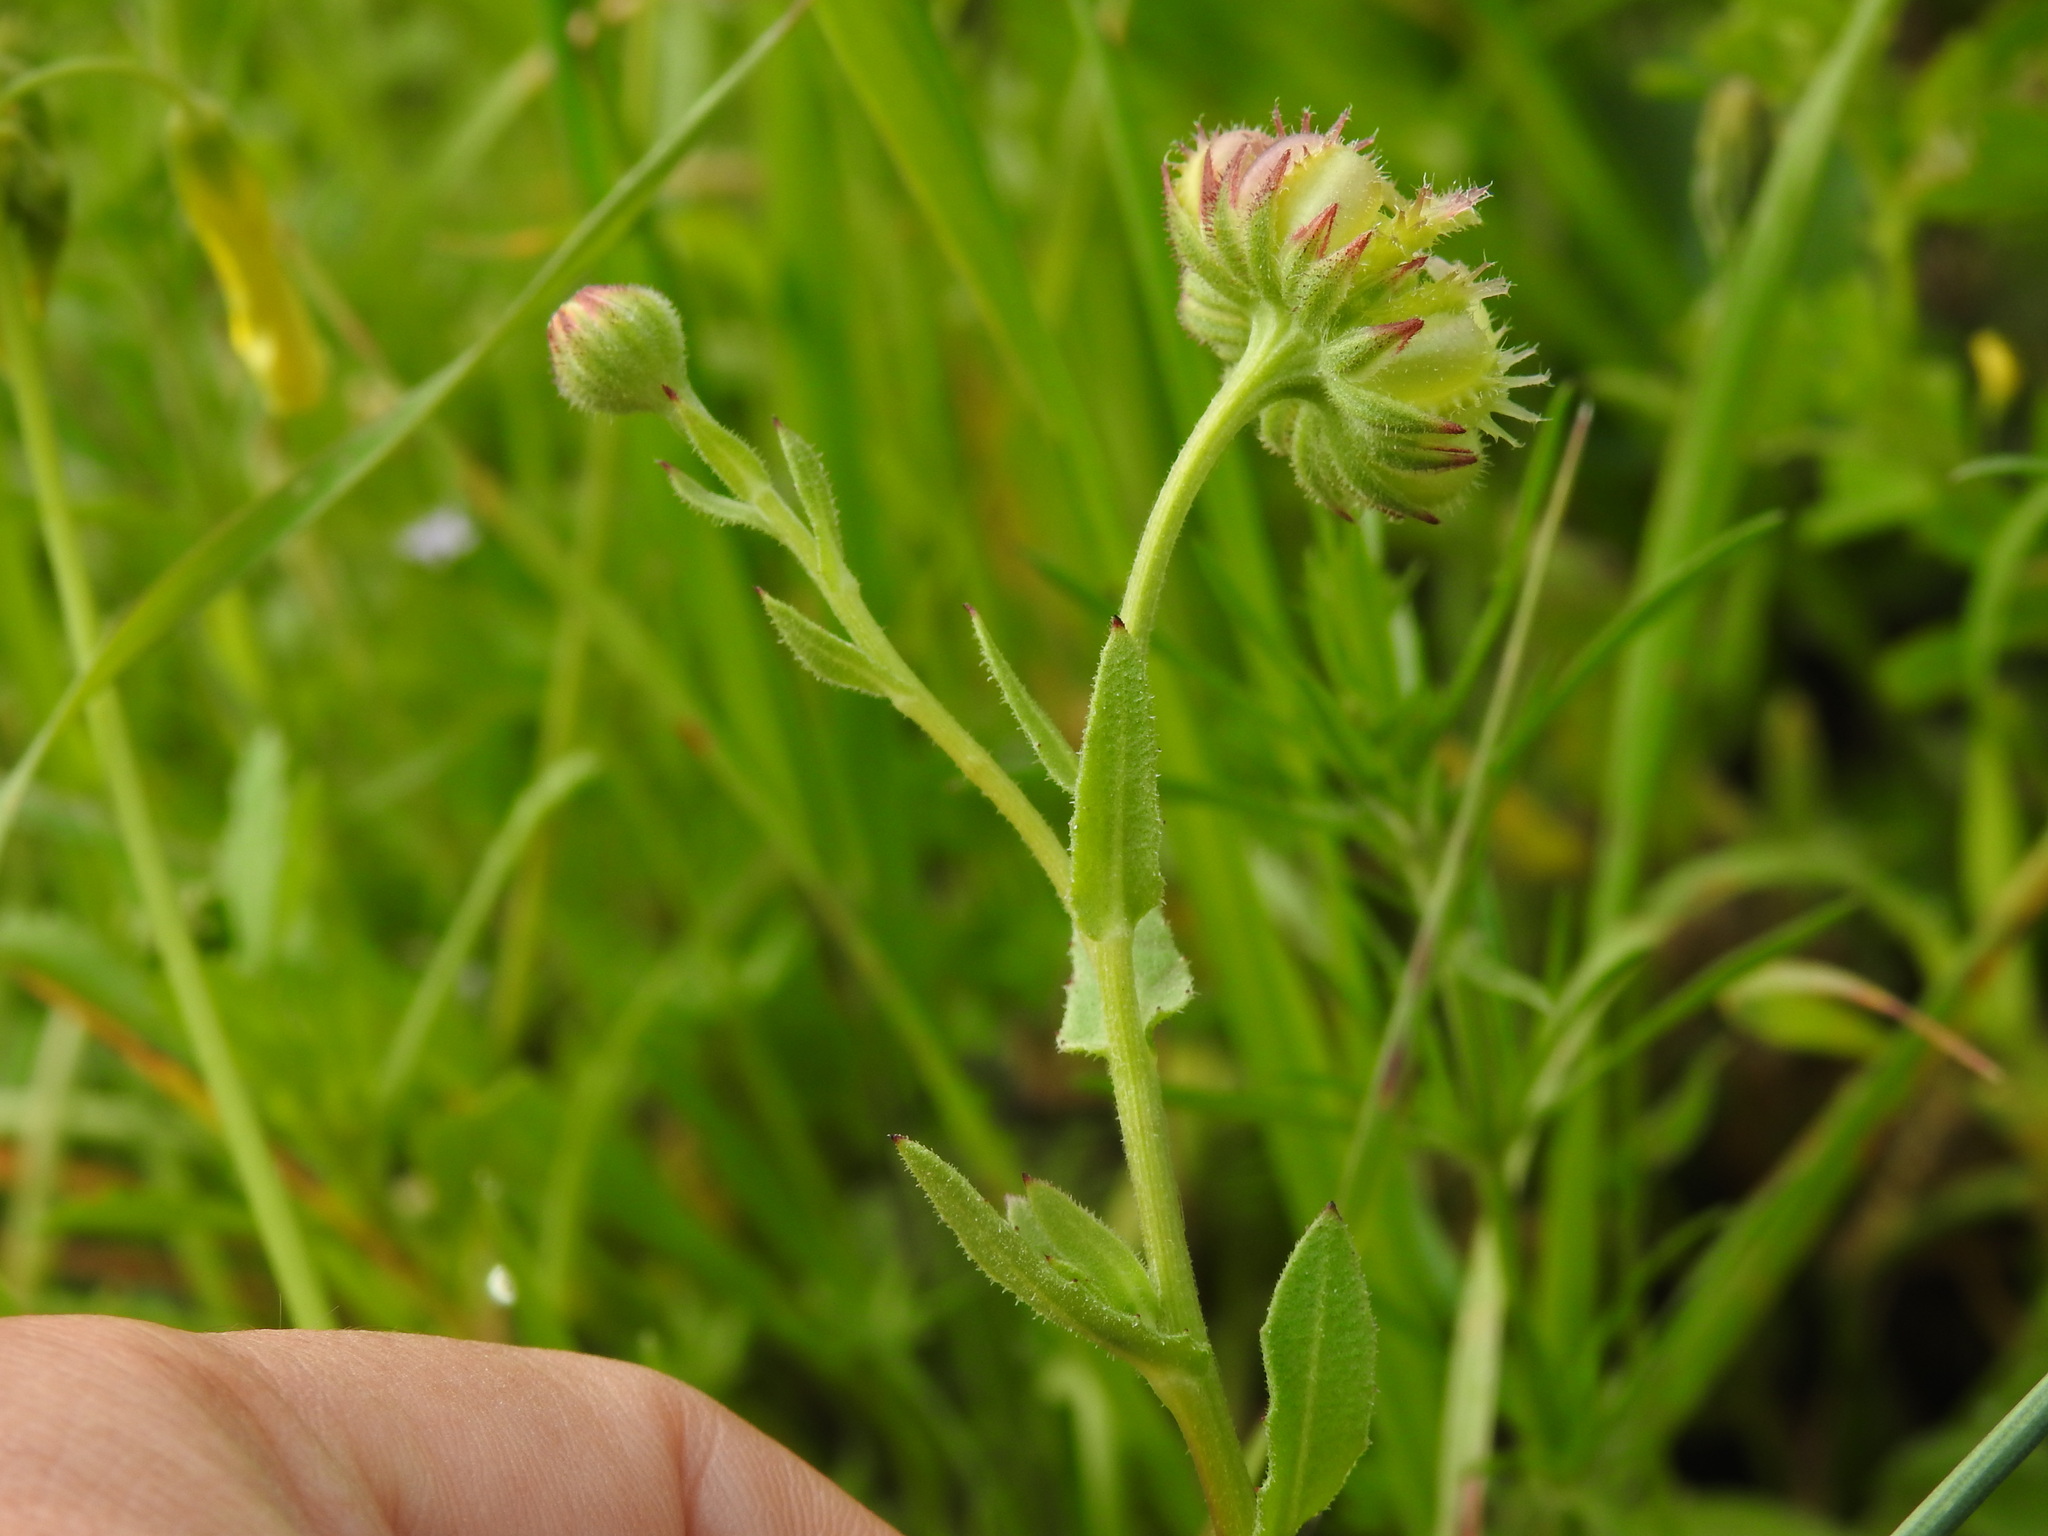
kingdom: Plantae
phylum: Tracheophyta
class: Magnoliopsida
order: Asterales
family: Asteraceae
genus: Calendula
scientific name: Calendula arvensis
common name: Field marigold
